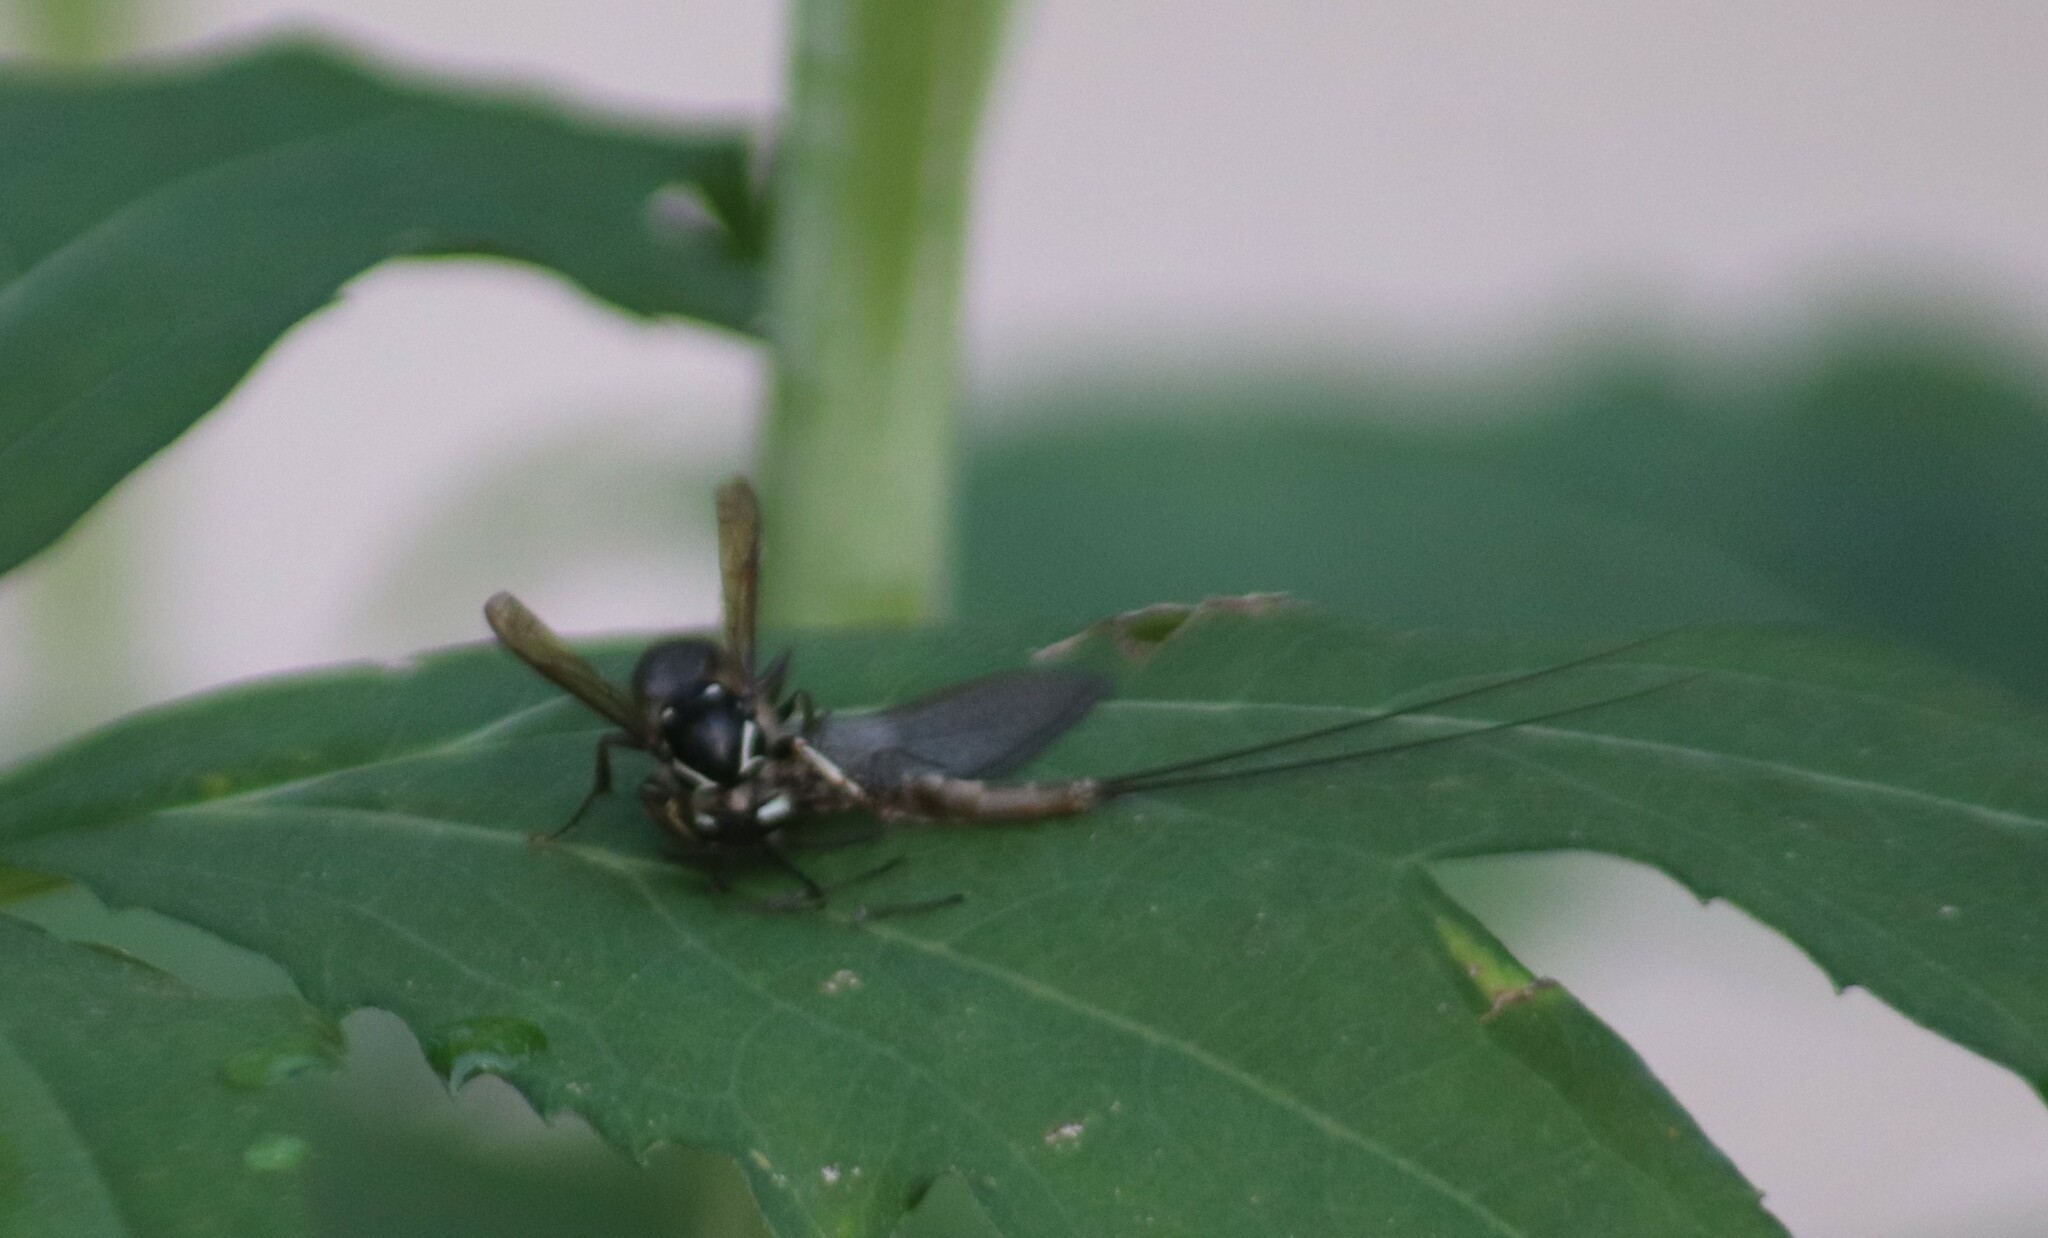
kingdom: Animalia
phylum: Arthropoda
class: Insecta
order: Hymenoptera
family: Vespidae
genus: Dolichovespula
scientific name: Dolichovespula maculata
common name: Bald-faced hornet
